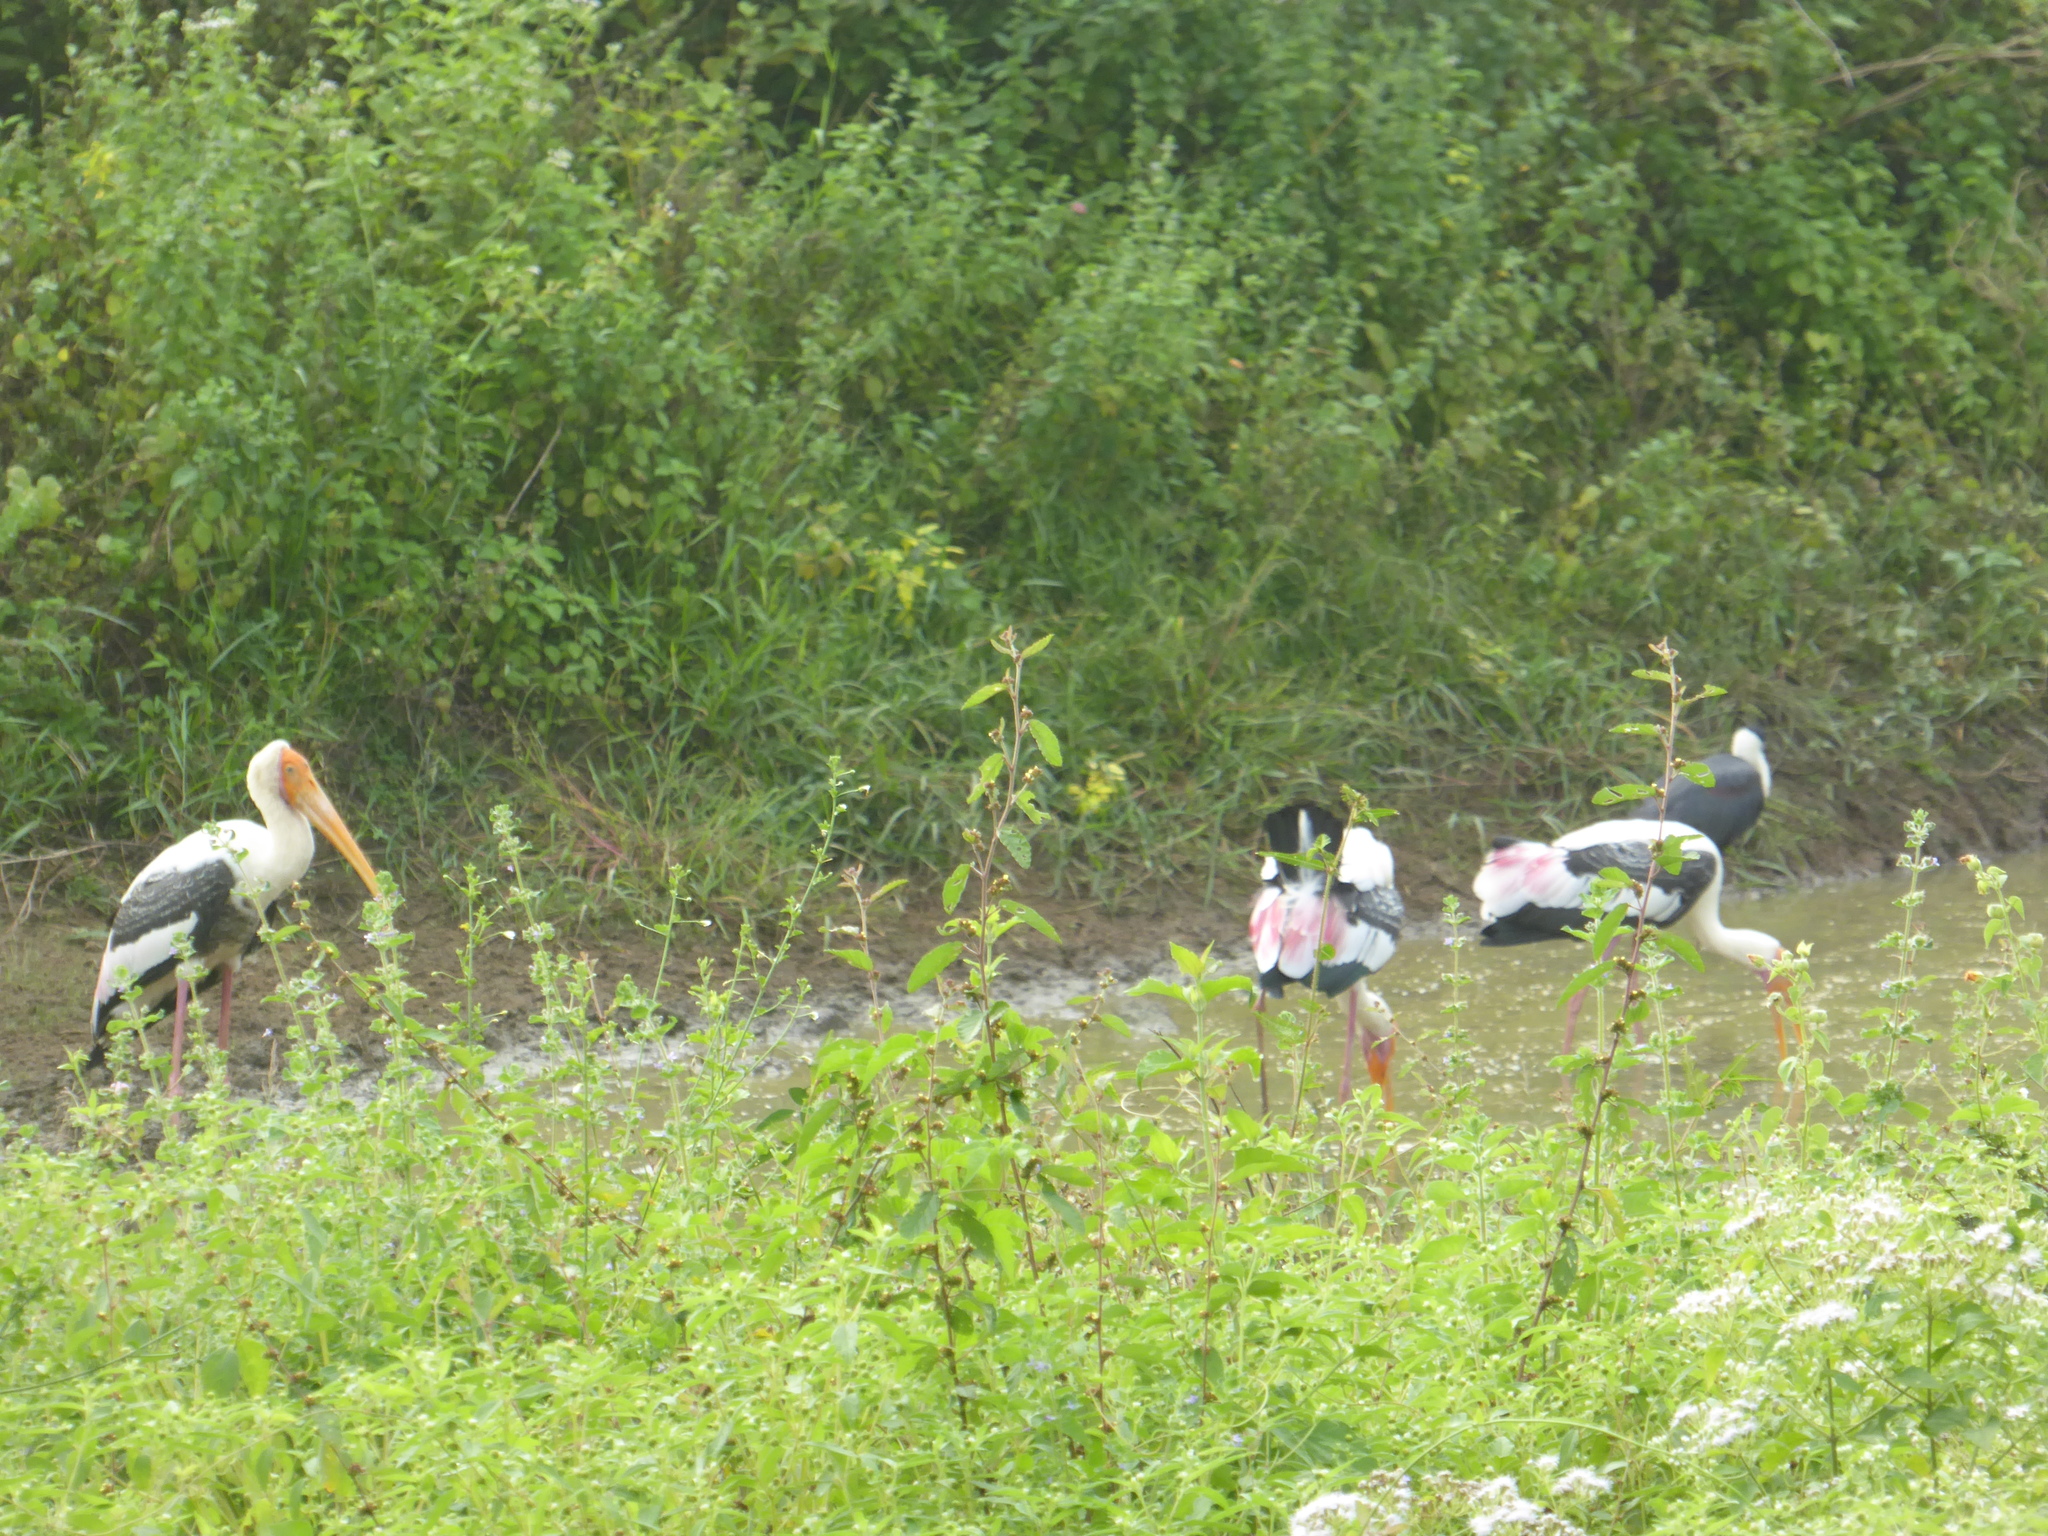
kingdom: Animalia
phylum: Chordata
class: Aves
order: Ciconiiformes
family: Ciconiidae
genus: Mycteria
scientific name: Mycteria leucocephala
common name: Painted stork
